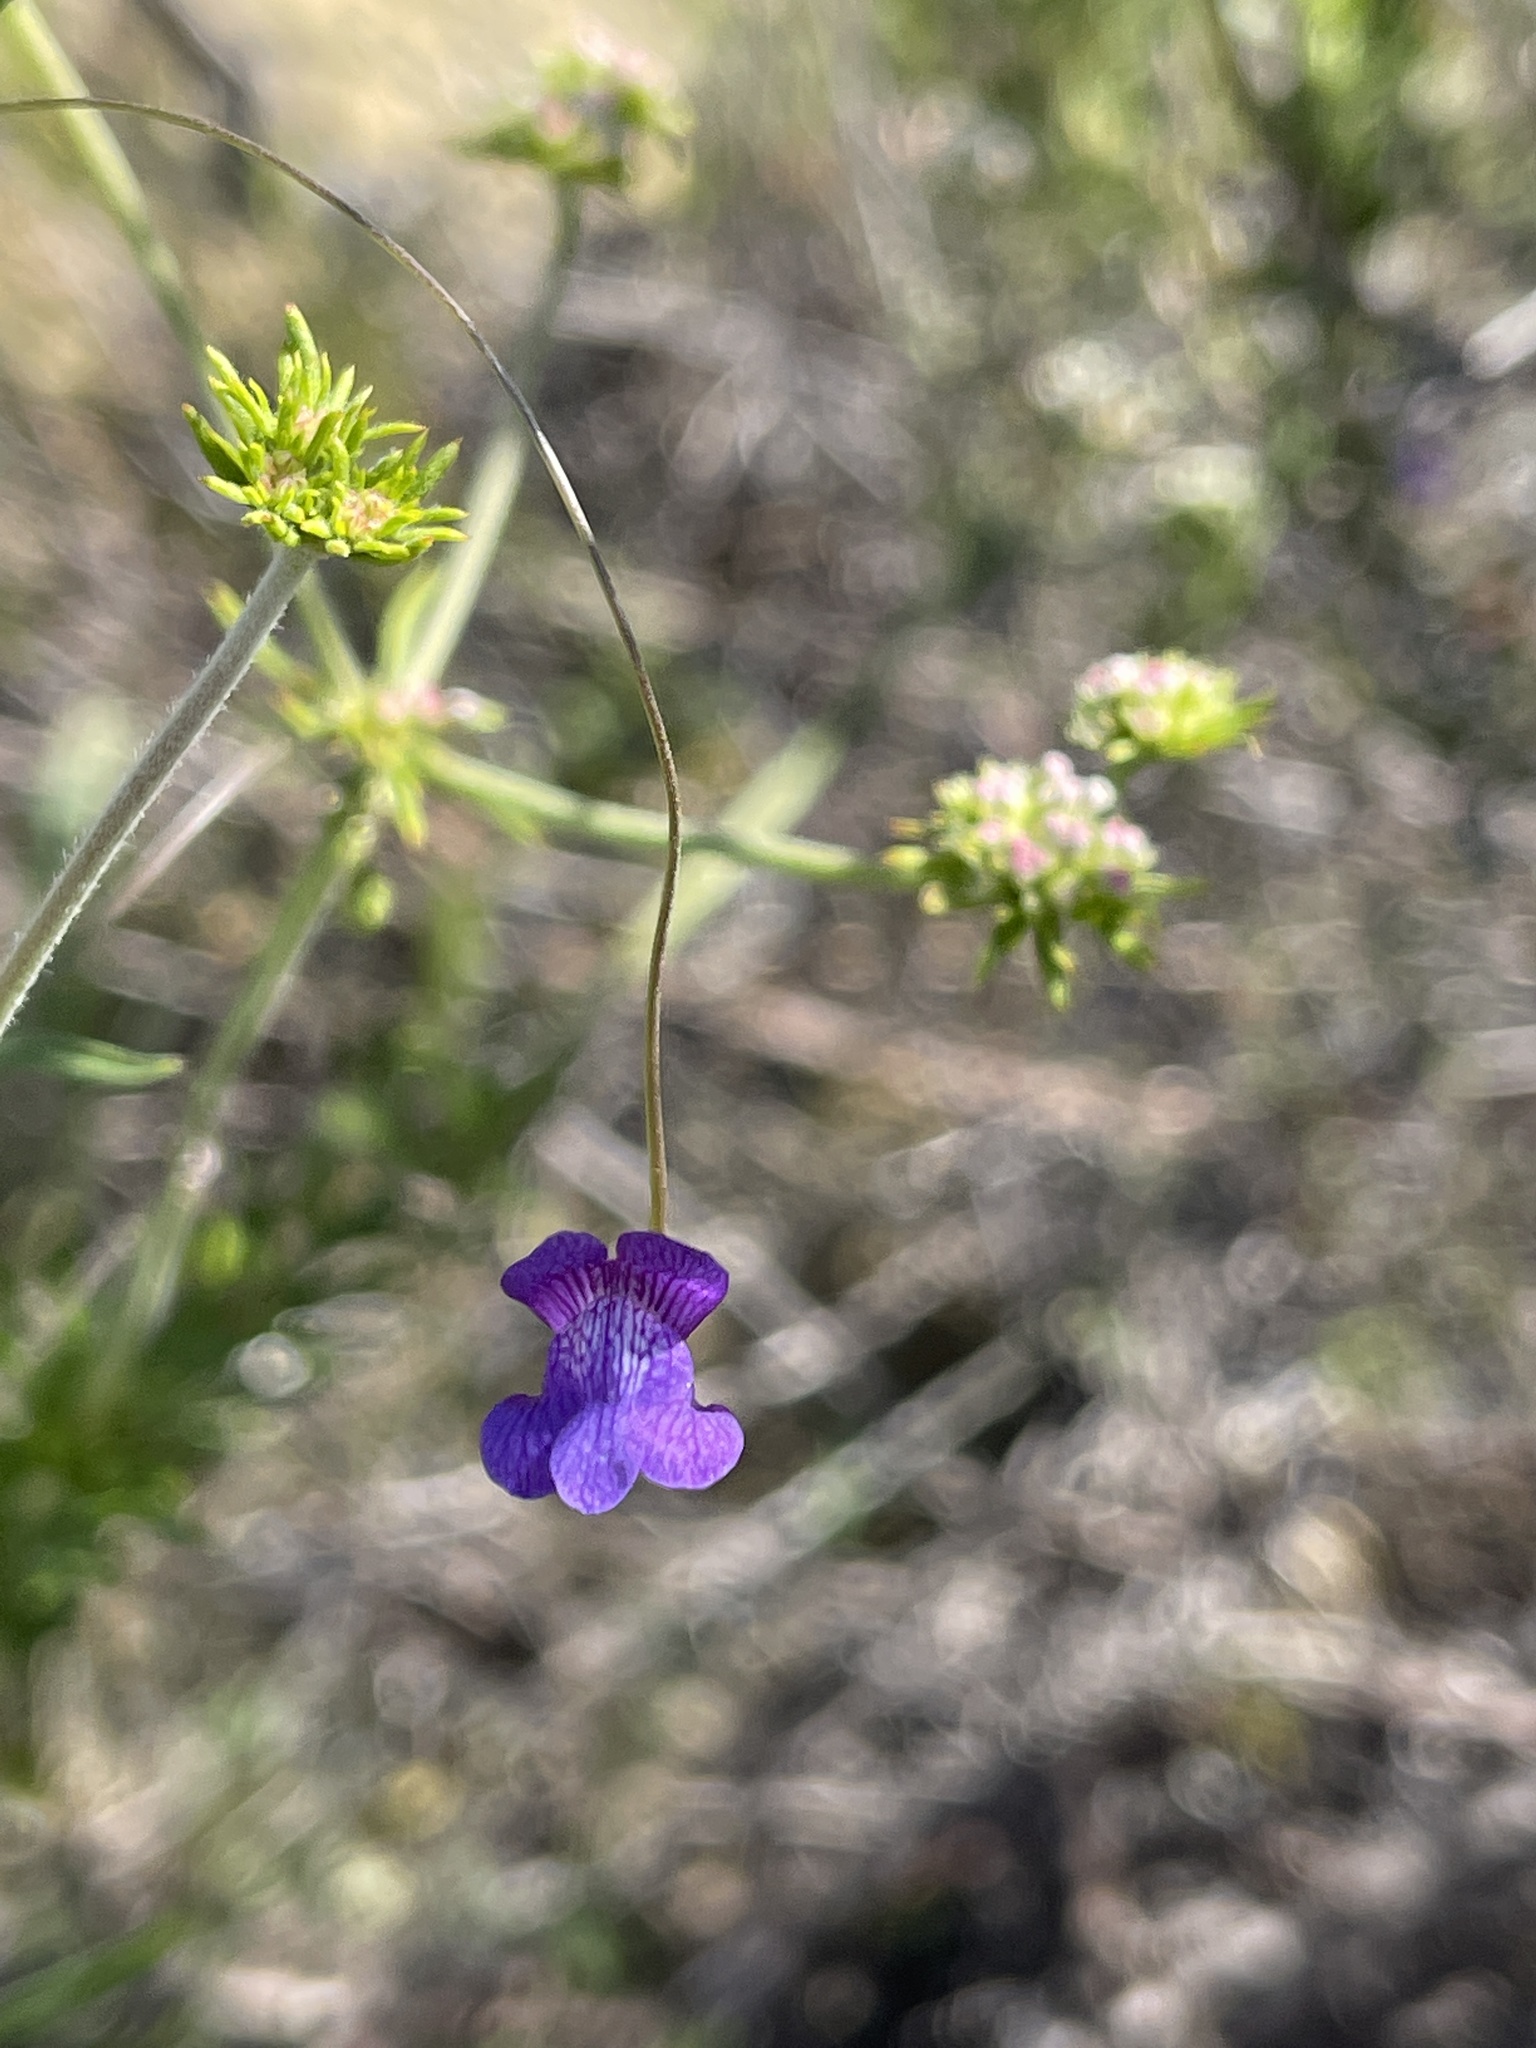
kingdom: Plantae
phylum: Tracheophyta
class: Magnoliopsida
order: Lamiales
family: Plantaginaceae
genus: Neogaerrhinum
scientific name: Neogaerrhinum strictum
